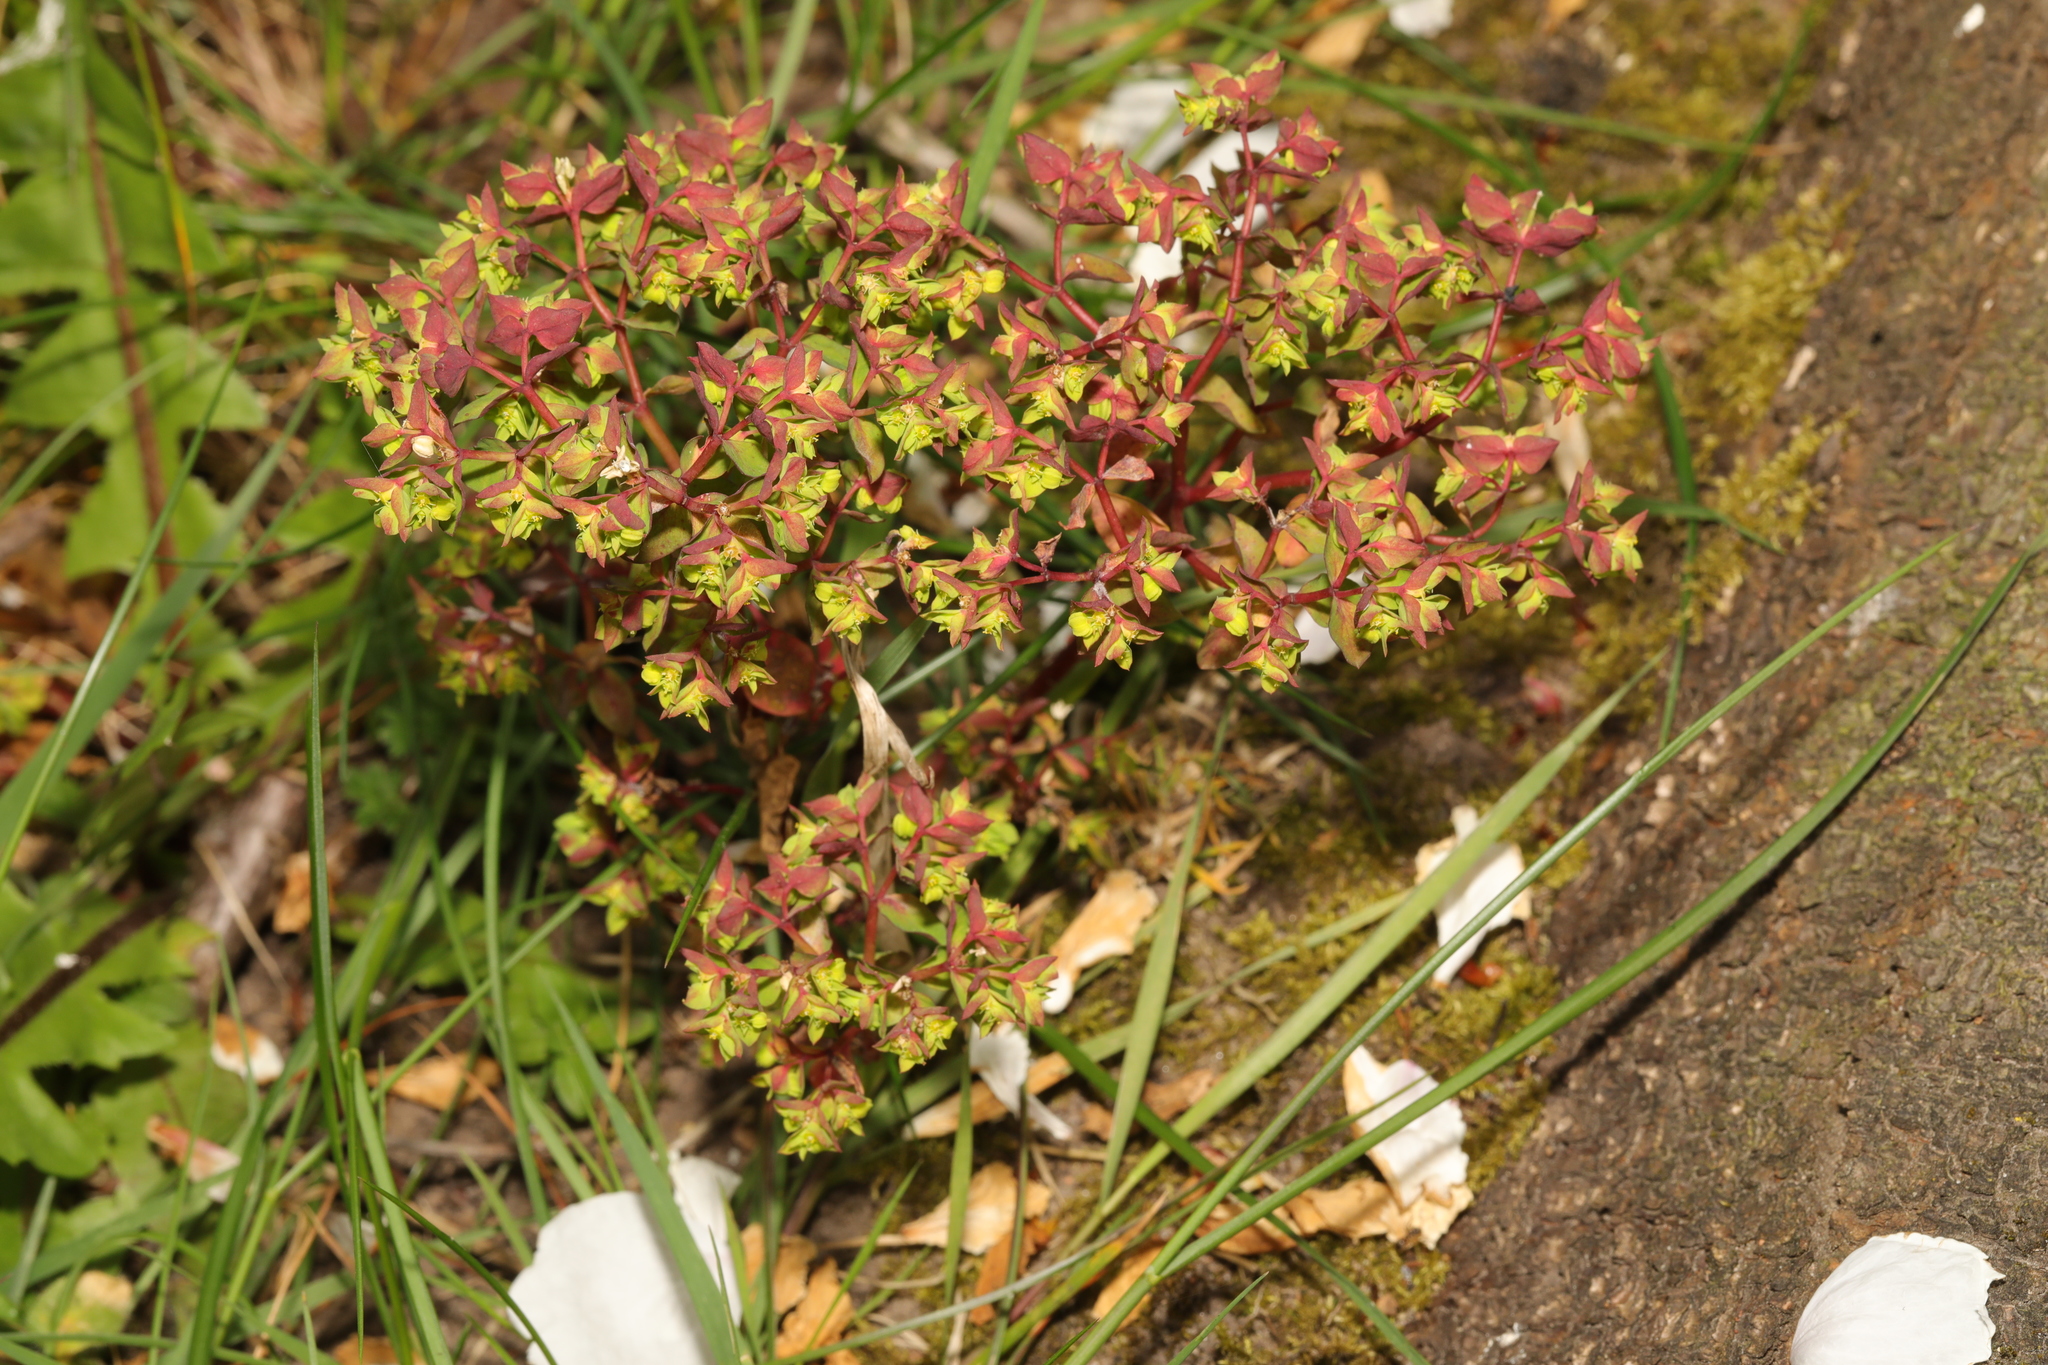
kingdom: Plantae
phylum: Tracheophyta
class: Magnoliopsida
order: Malpighiales
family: Euphorbiaceae
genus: Euphorbia
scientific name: Euphorbia peplus
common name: Petty spurge
